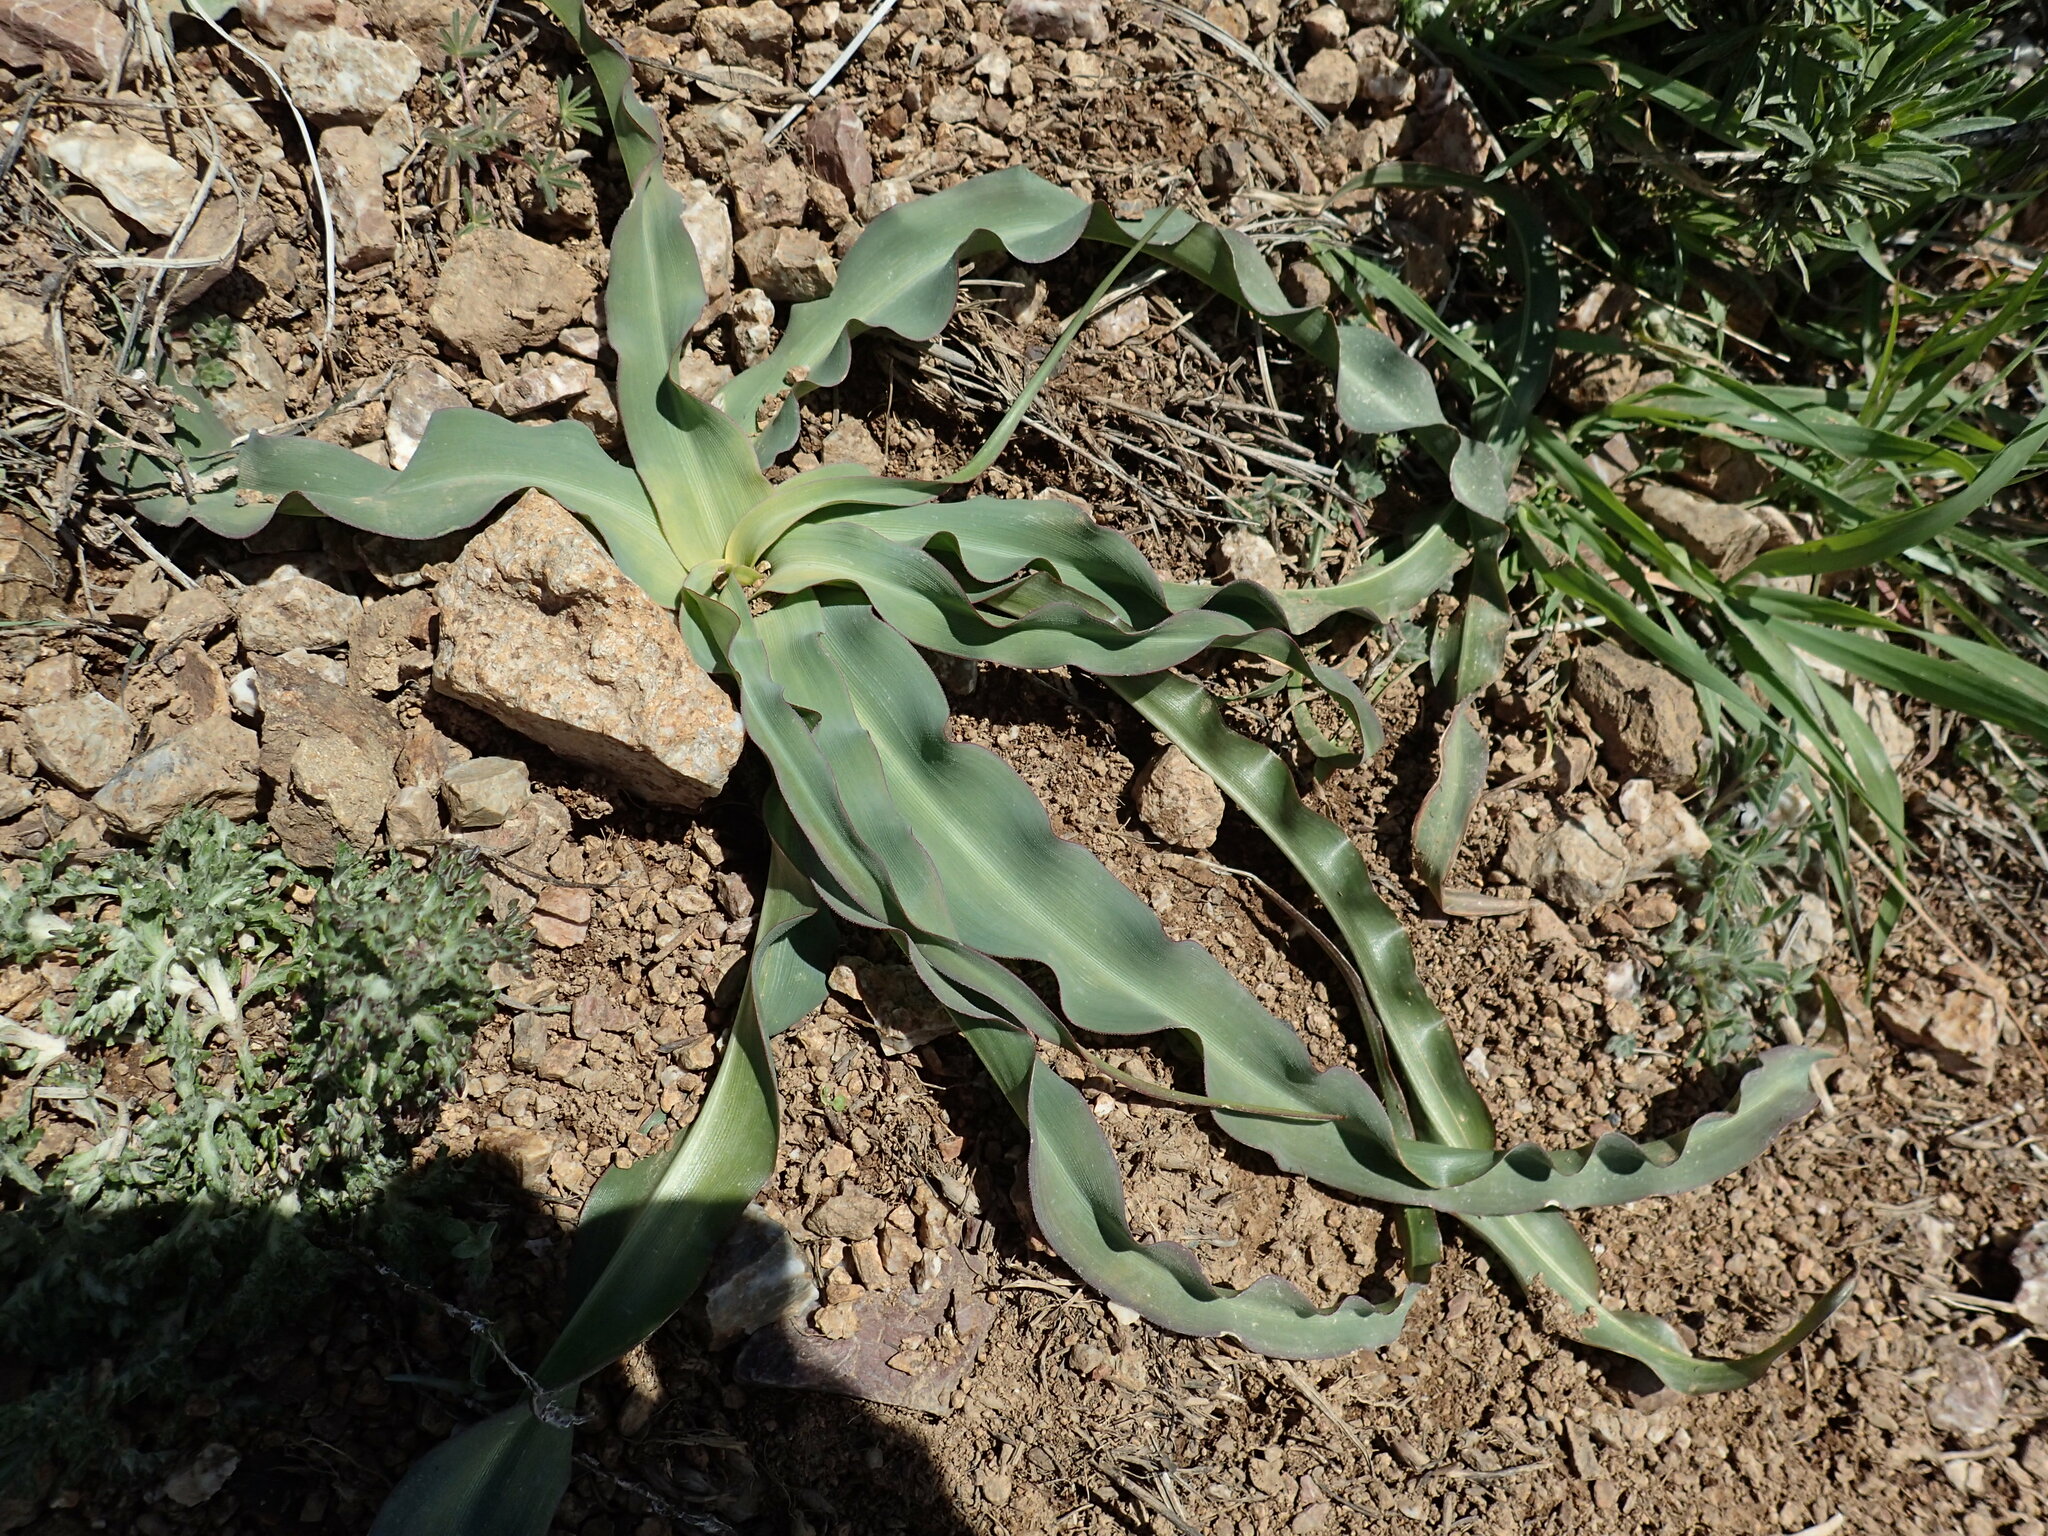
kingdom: Plantae
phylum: Tracheophyta
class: Liliopsida
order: Asparagales
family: Asparagaceae
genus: Chlorogalum
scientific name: Chlorogalum pomeridianum
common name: Amole
